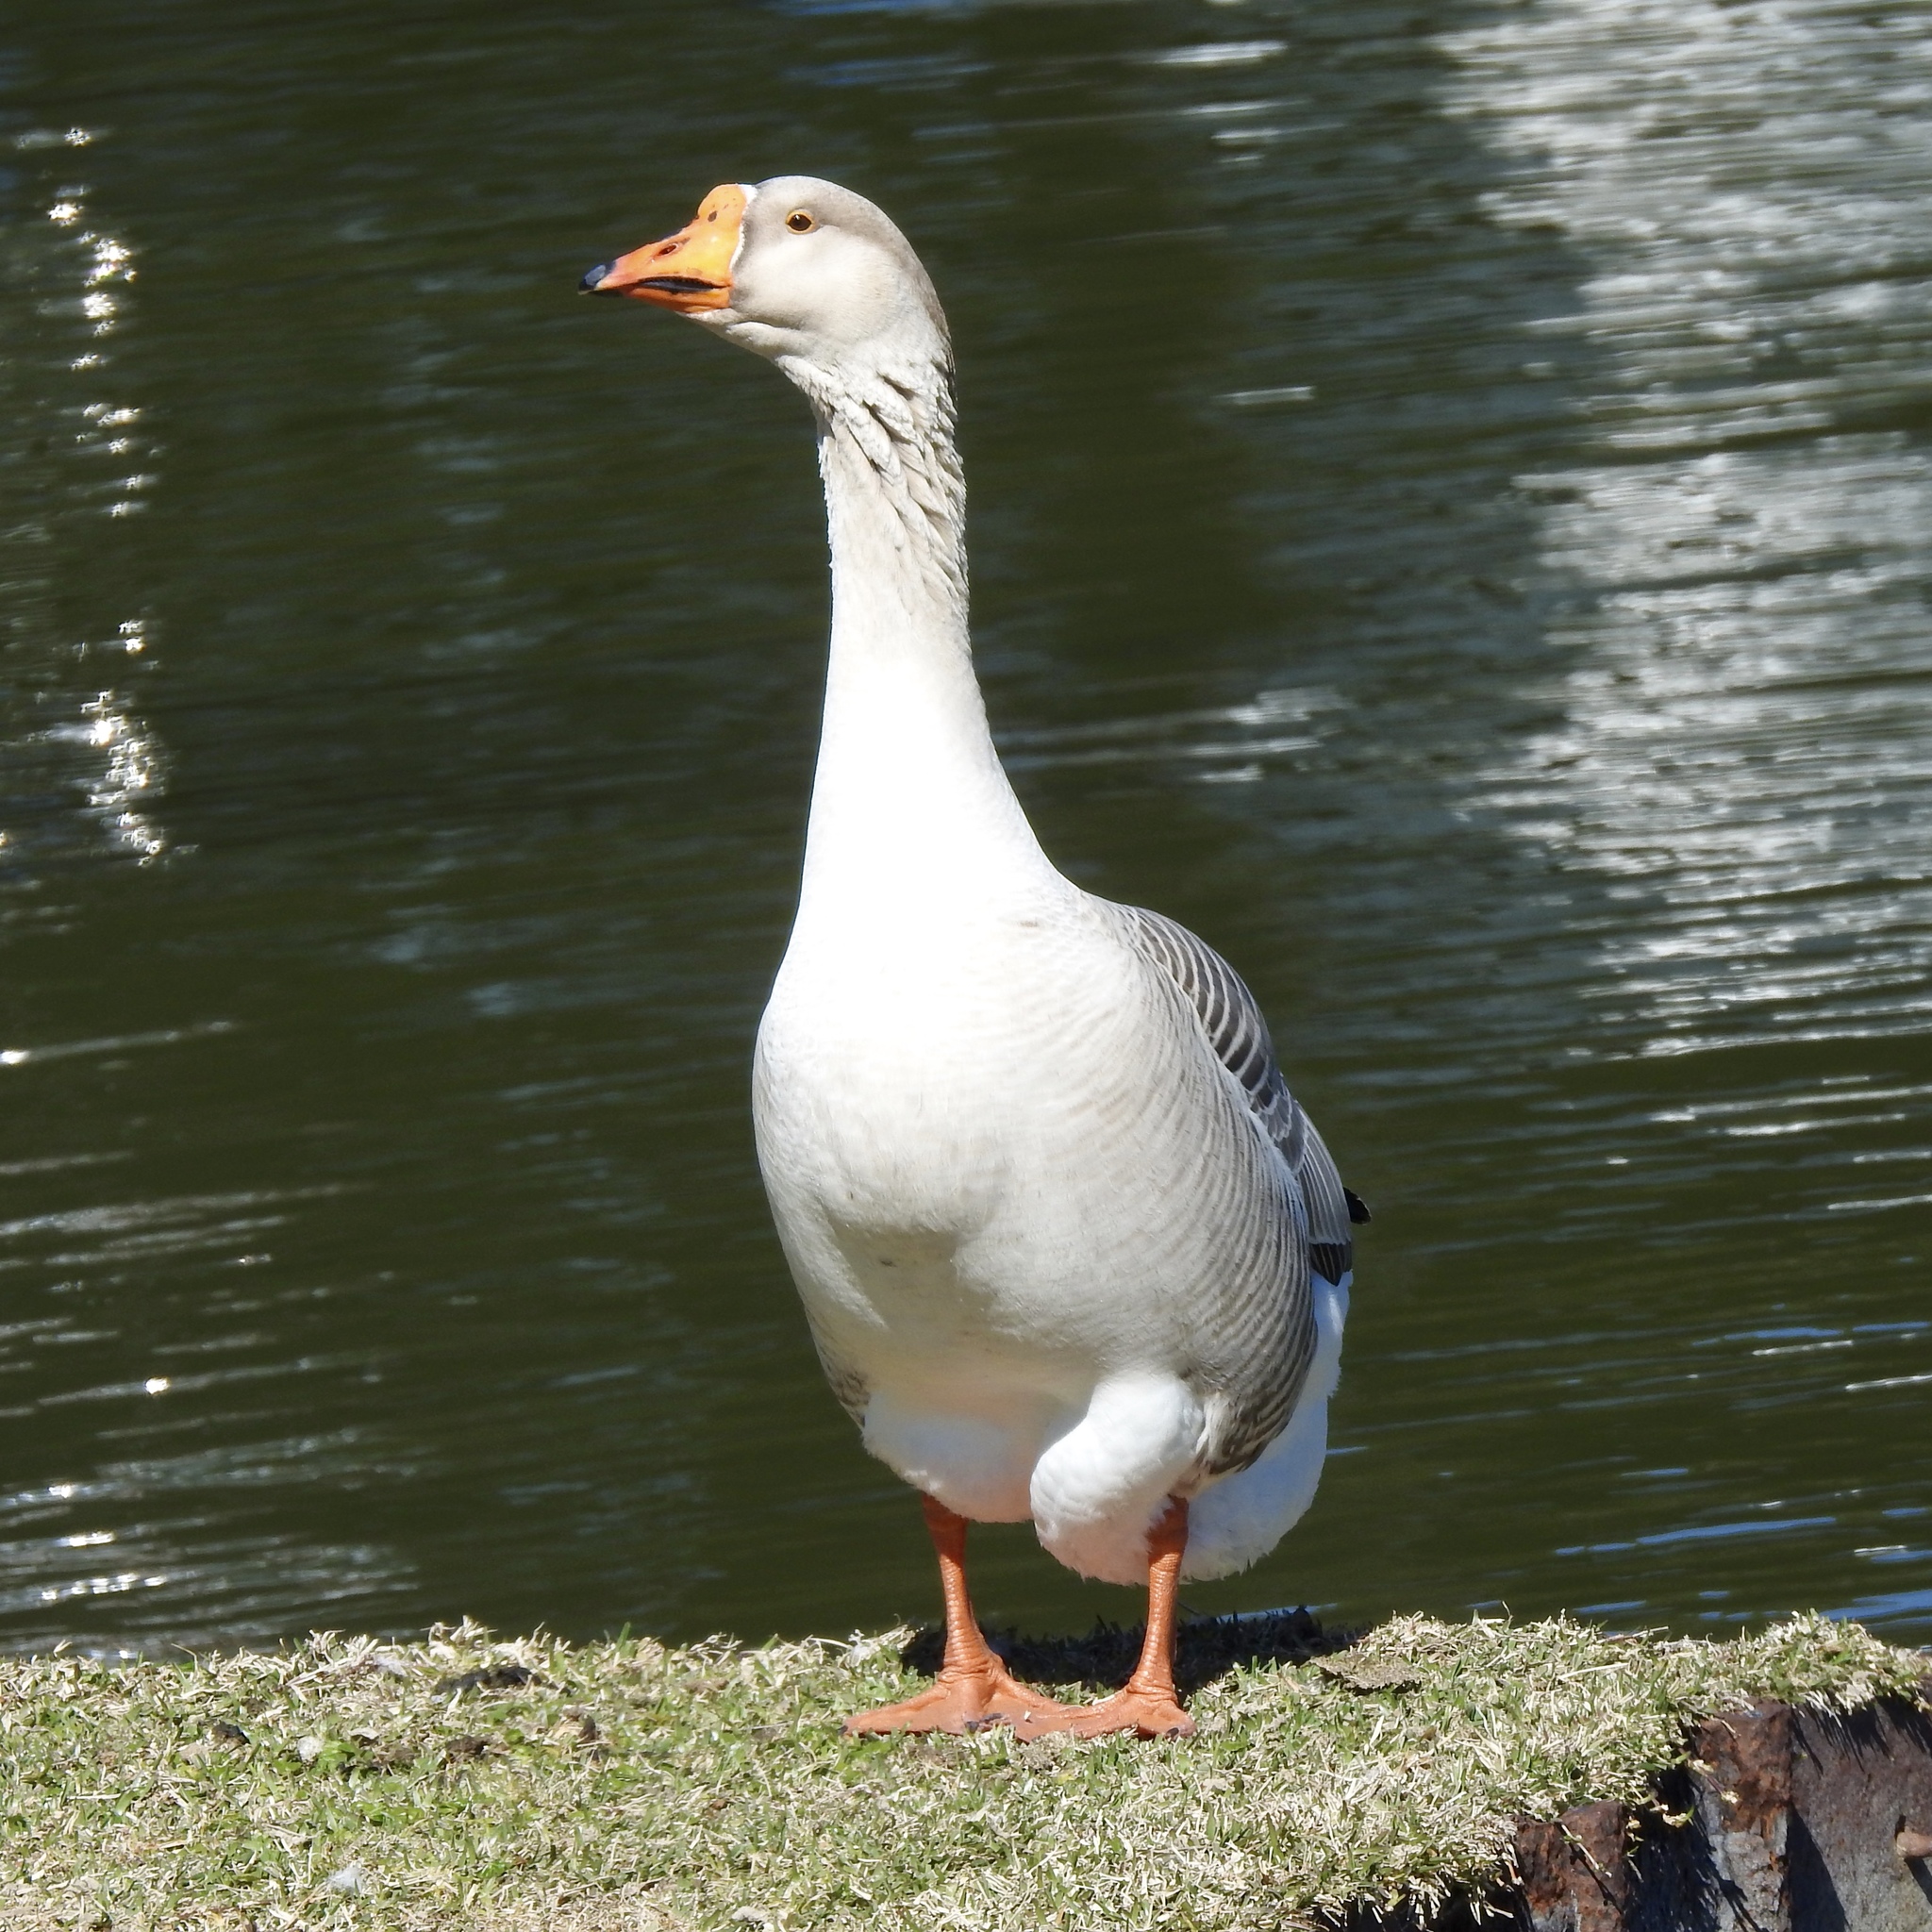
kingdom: Animalia
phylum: Chordata
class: Aves
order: Anseriformes
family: Anatidae
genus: Anser
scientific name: Anser
